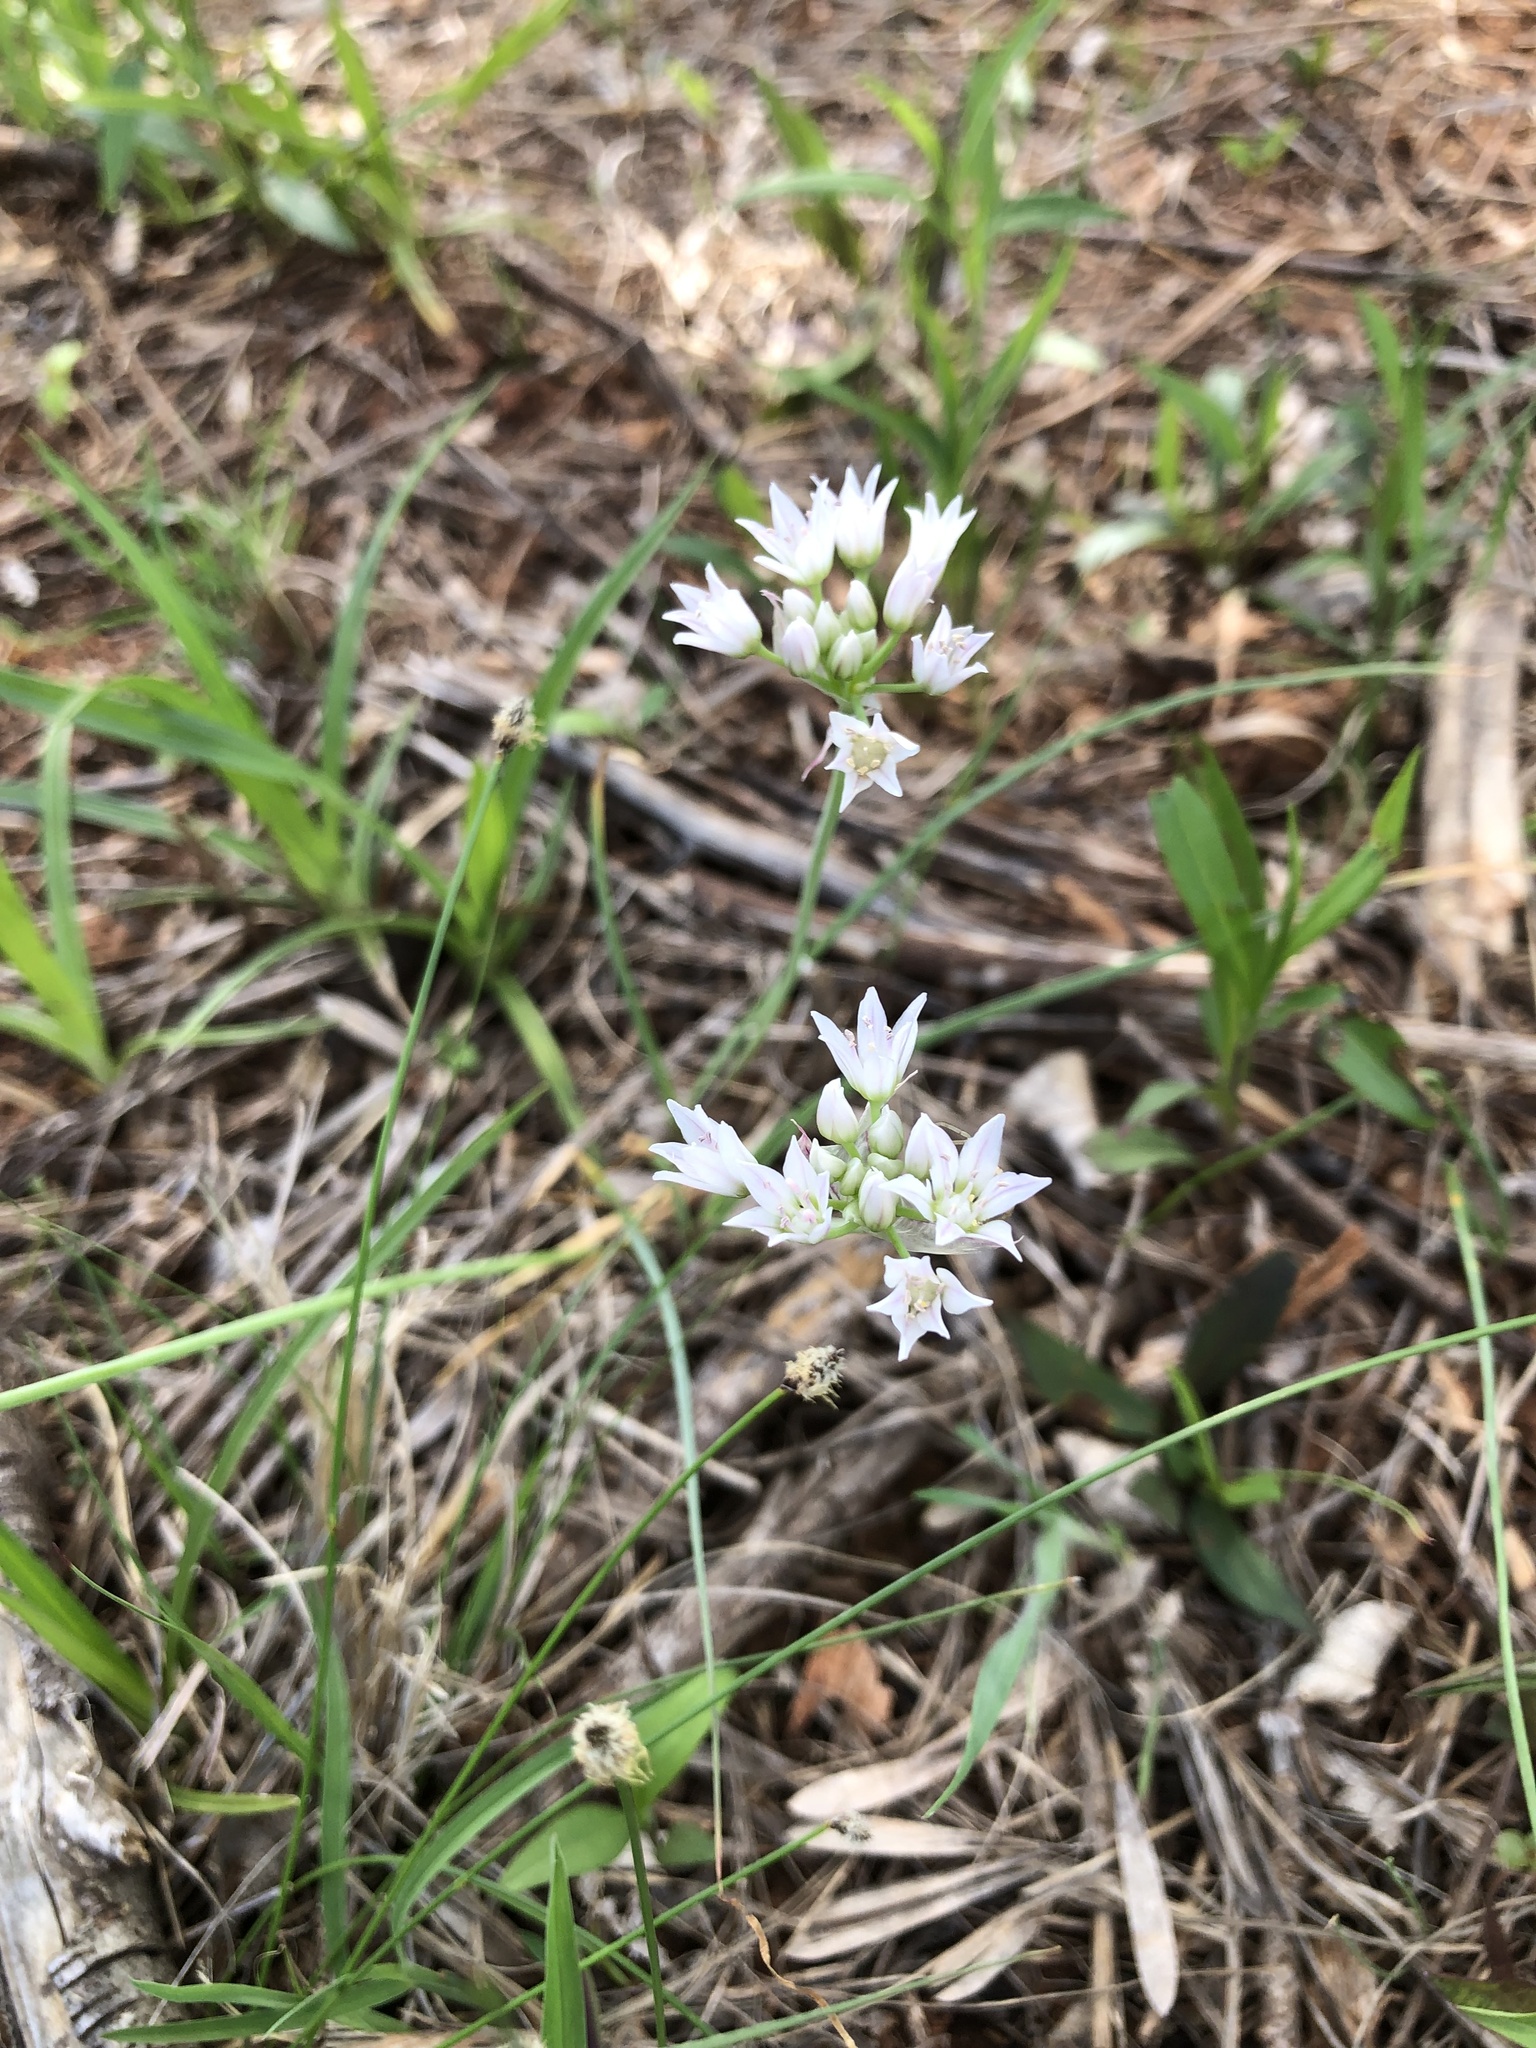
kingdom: Plantae
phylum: Tracheophyta
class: Liliopsida
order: Asparagales
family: Amaryllidaceae
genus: Allium
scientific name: Allium drummondii
